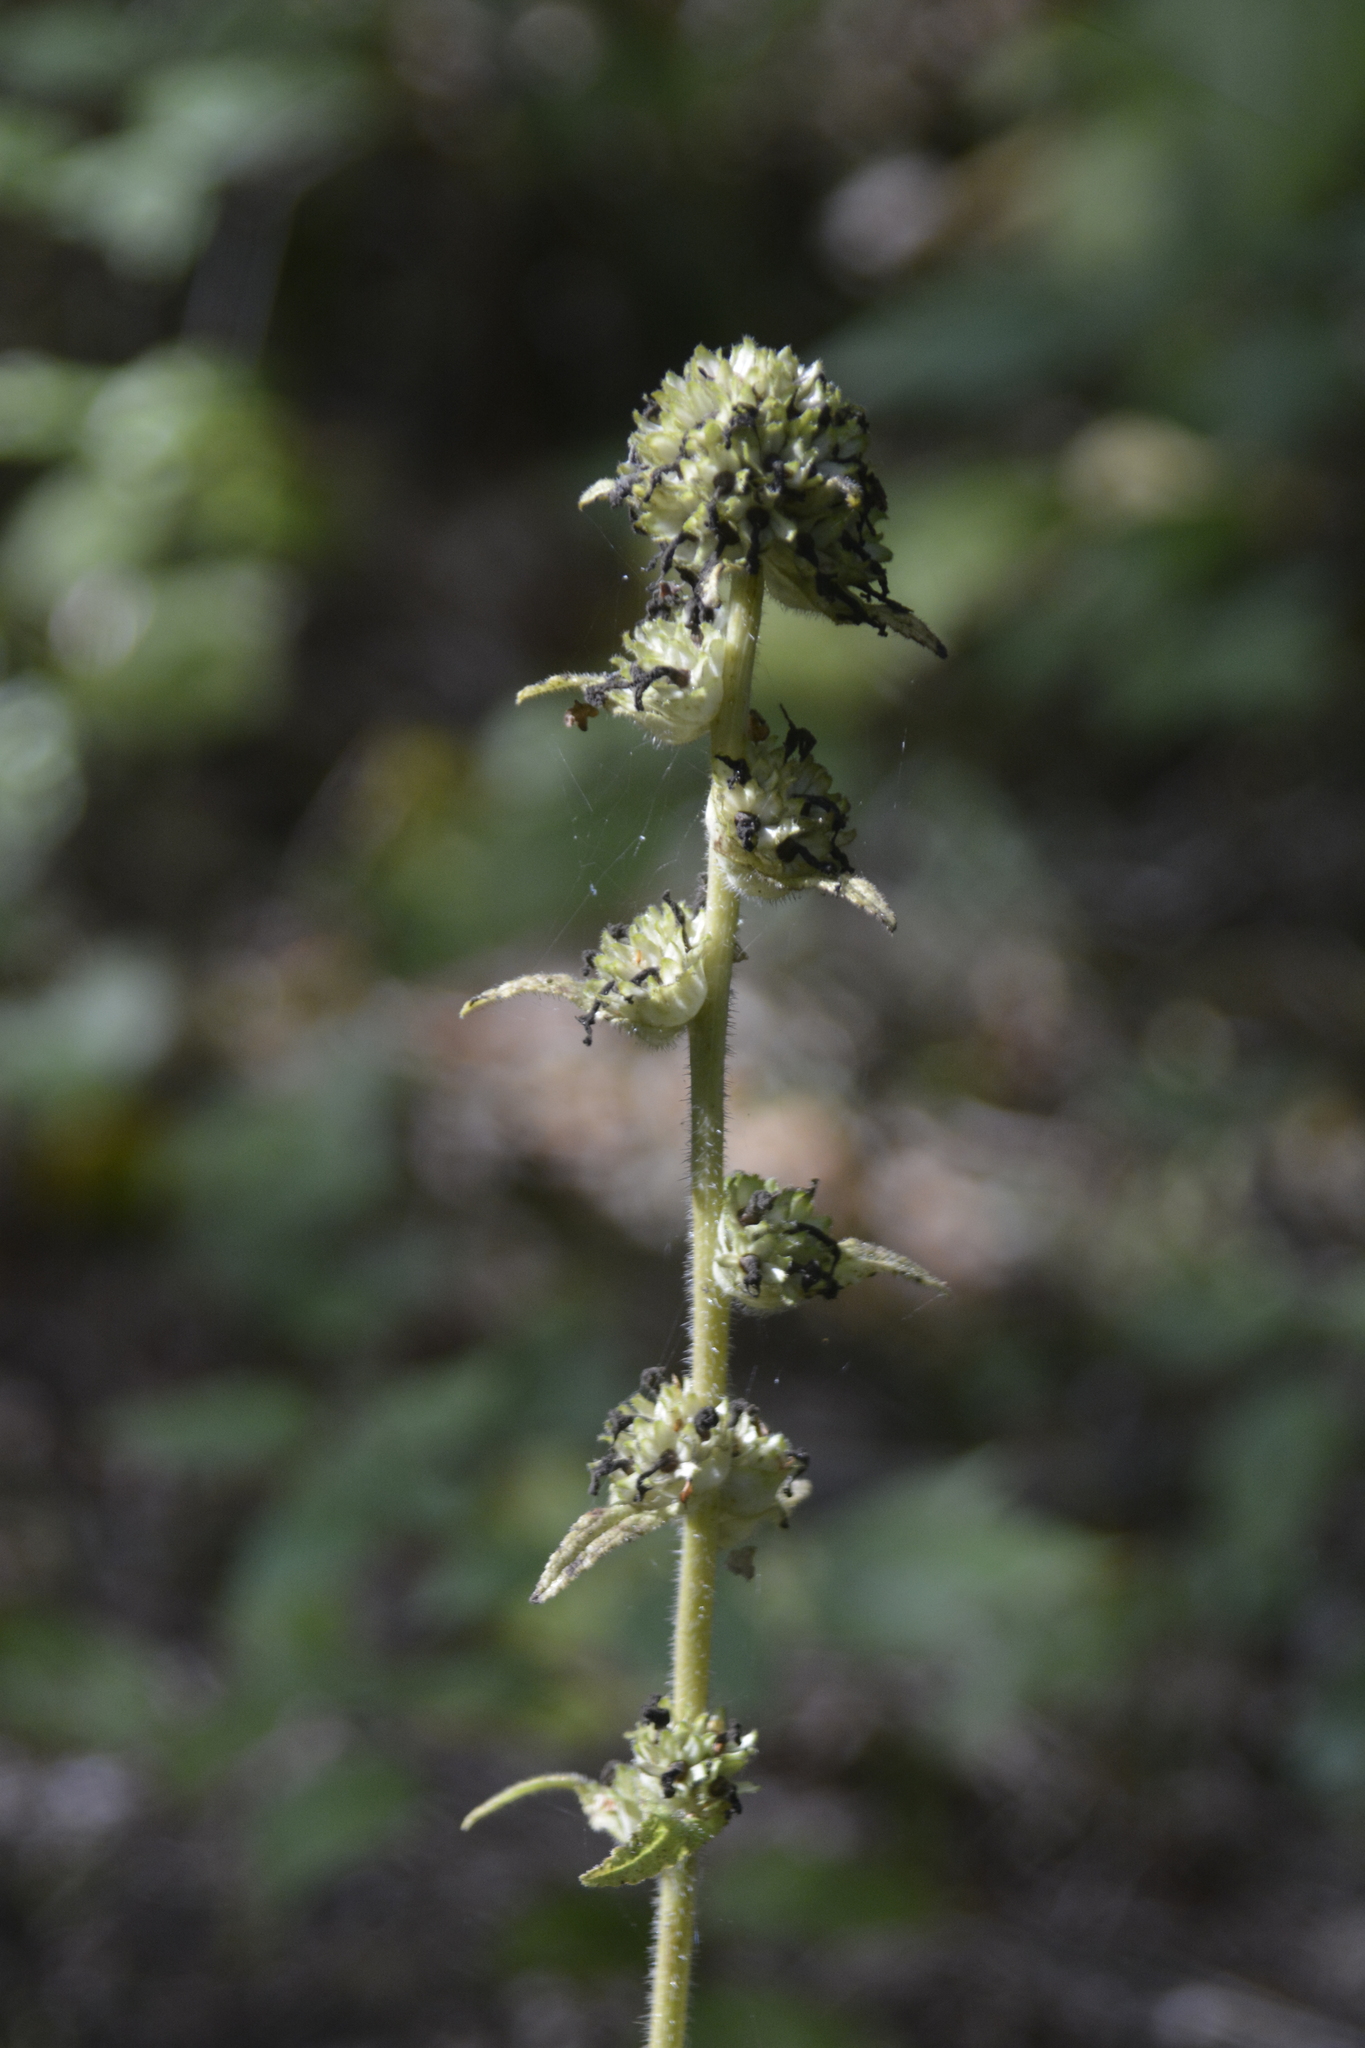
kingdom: Plantae
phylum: Tracheophyta
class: Magnoliopsida
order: Asterales
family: Campanulaceae
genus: Campanula
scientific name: Campanula cervicaria
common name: Bristly bellflower
